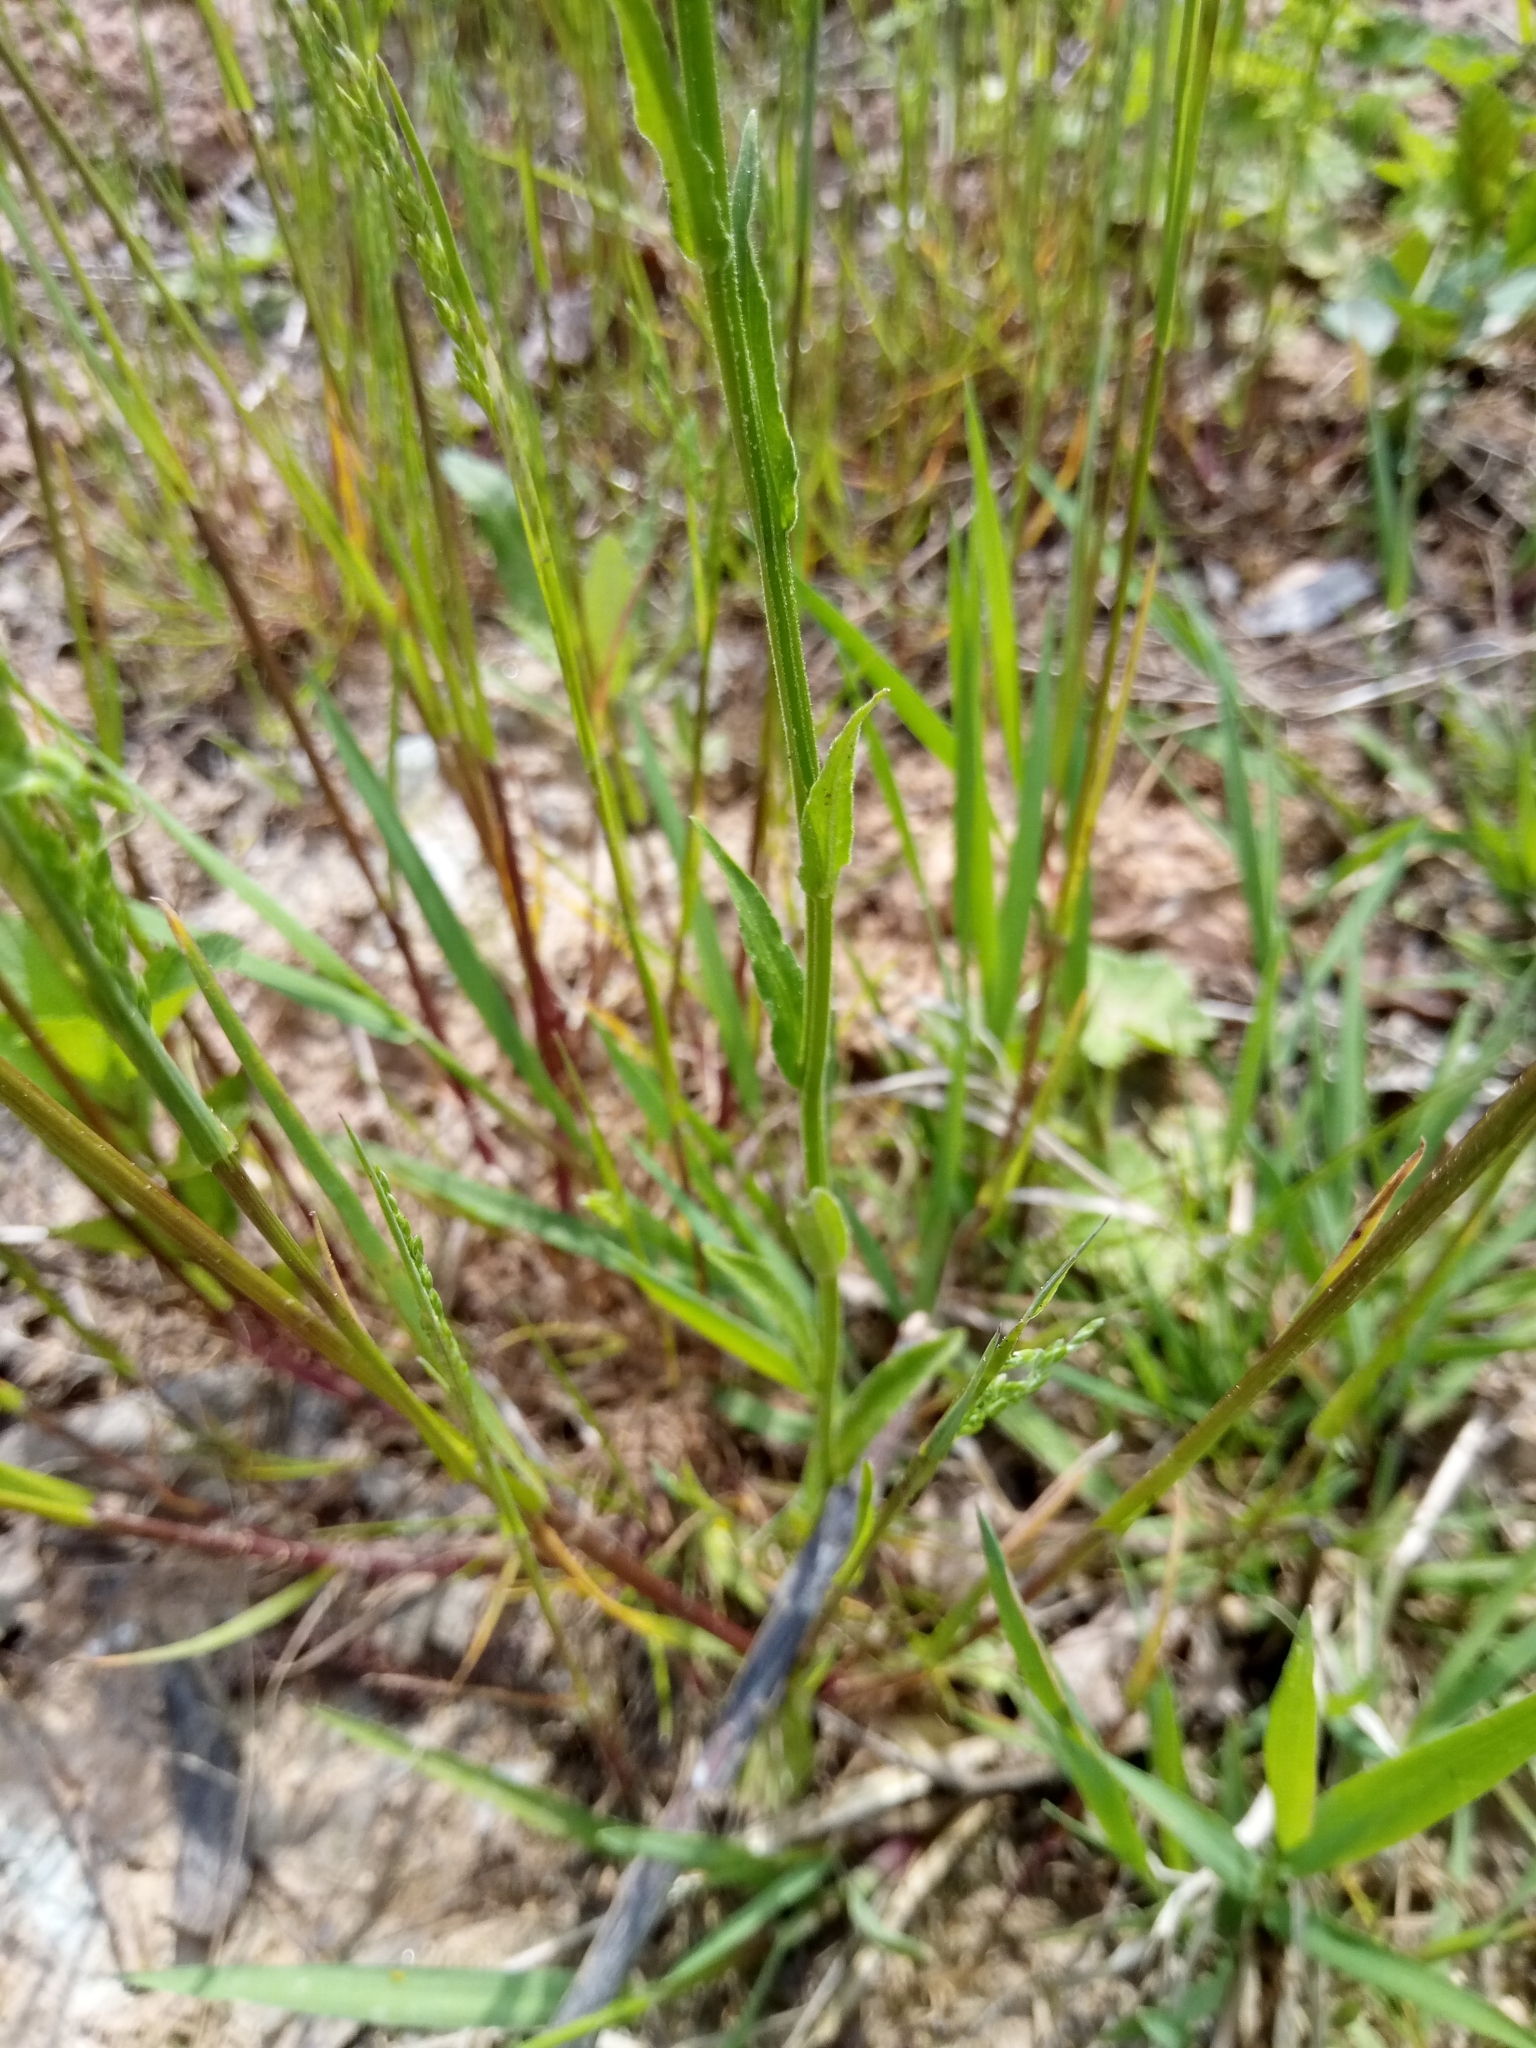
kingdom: Plantae
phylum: Tracheophyta
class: Magnoliopsida
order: Asterales
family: Campanulaceae
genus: Campanula
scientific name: Campanula patula
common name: Spreading bellflower
